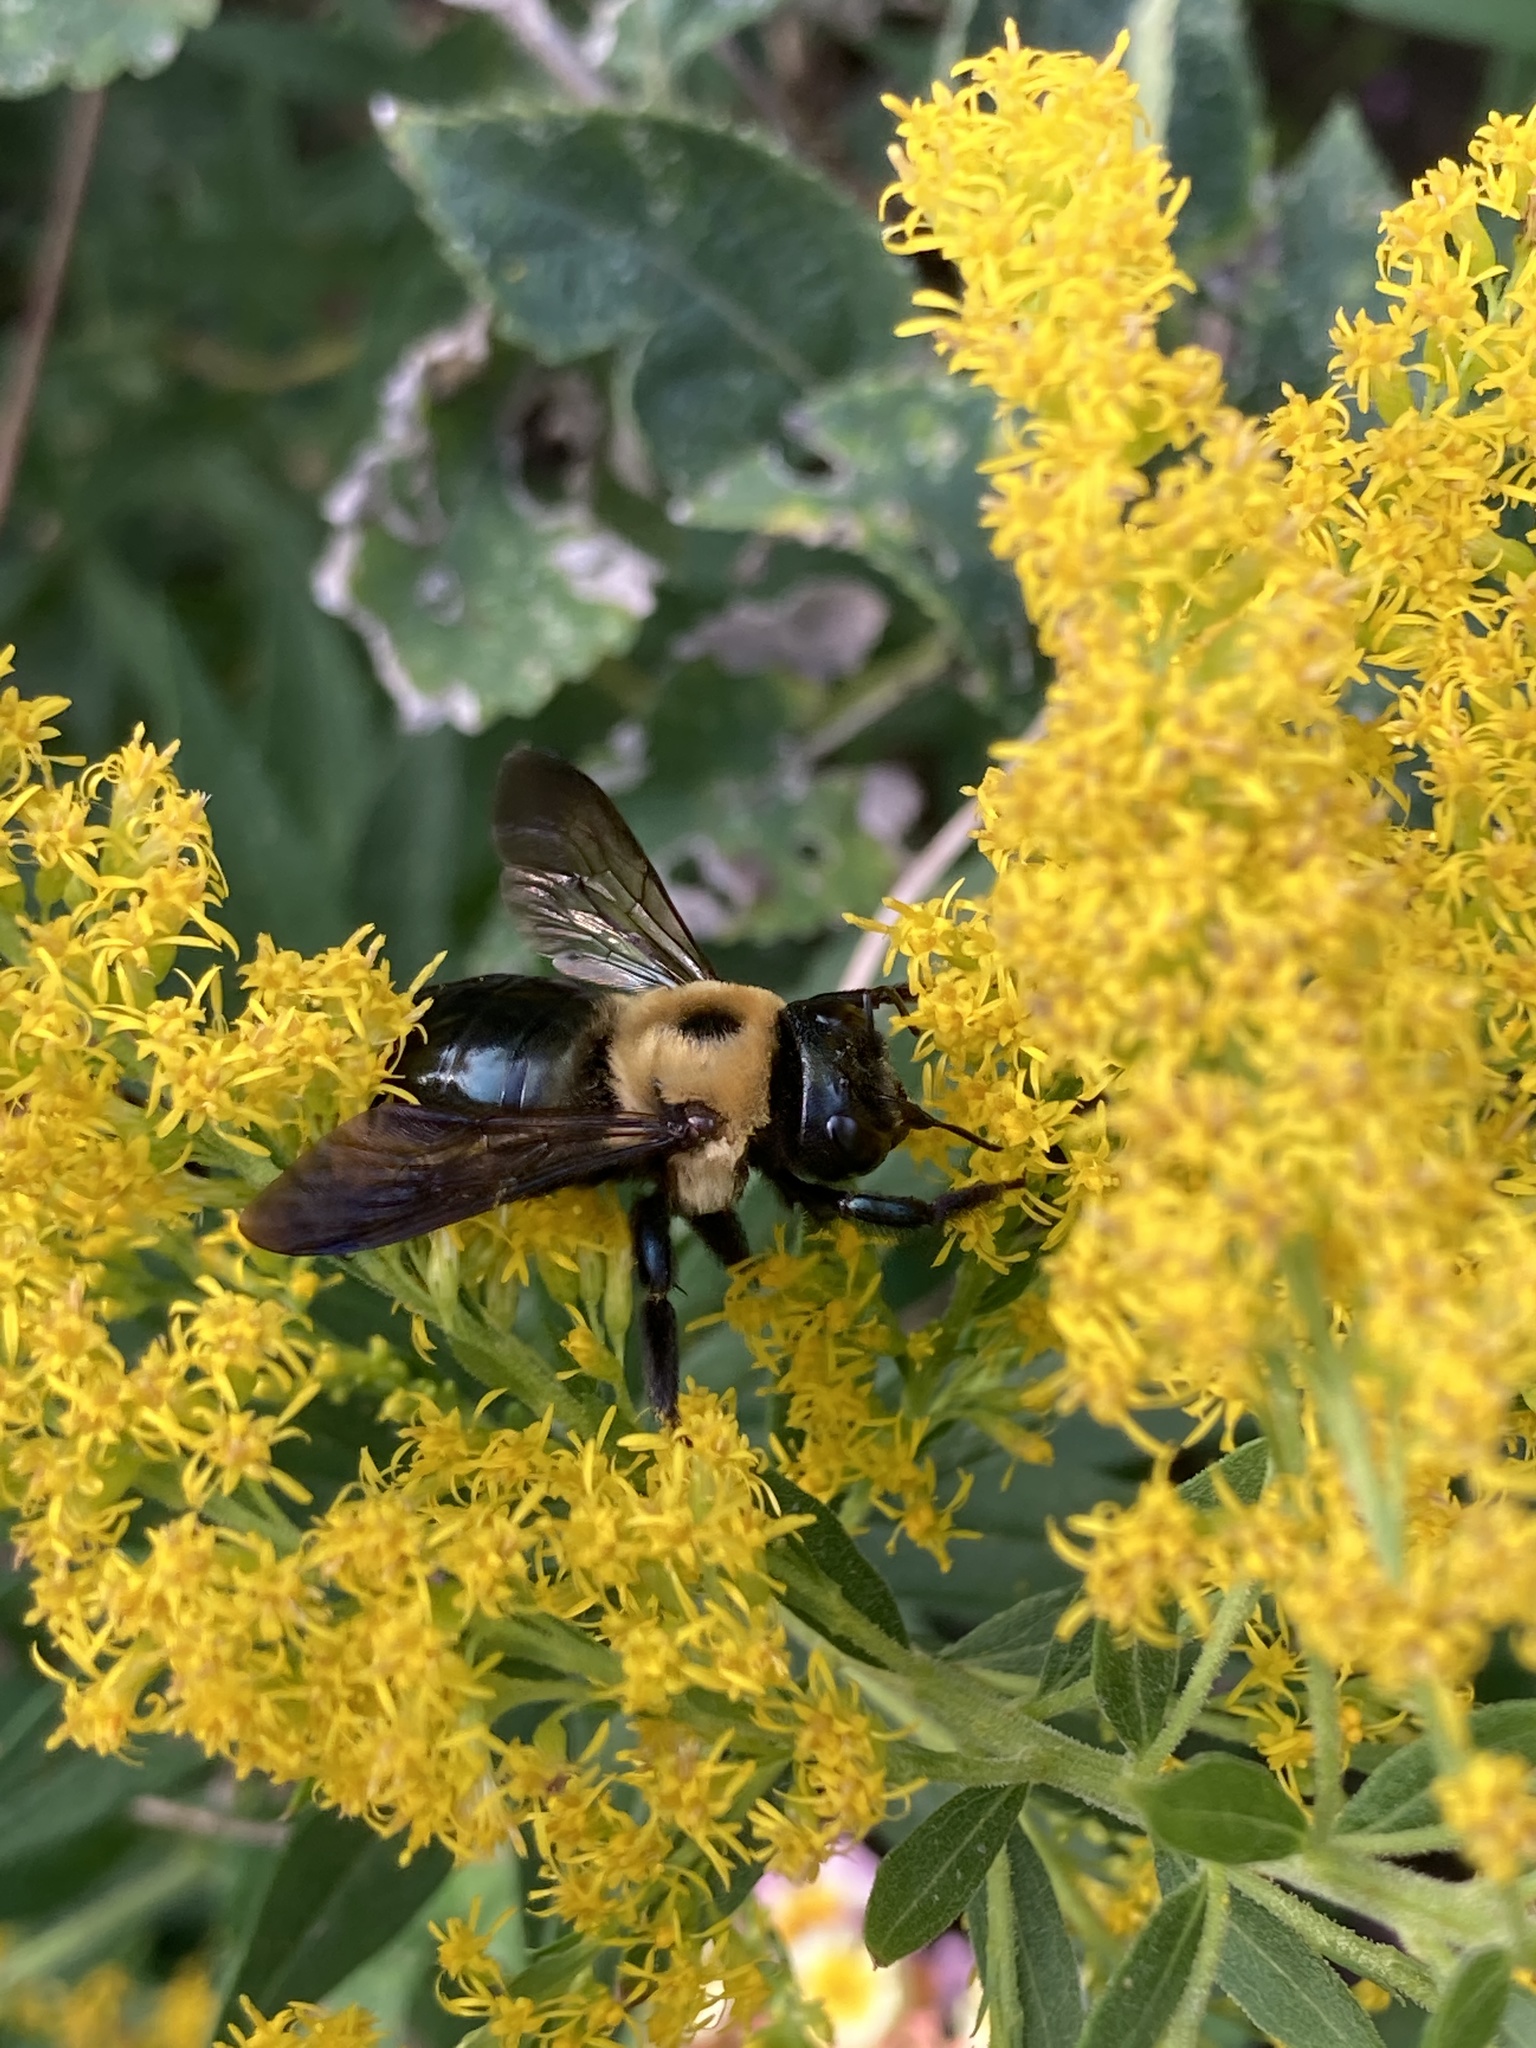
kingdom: Animalia
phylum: Arthropoda
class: Insecta
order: Hymenoptera
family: Apidae
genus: Xylocopa
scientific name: Xylocopa virginica
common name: Carpenter bee
